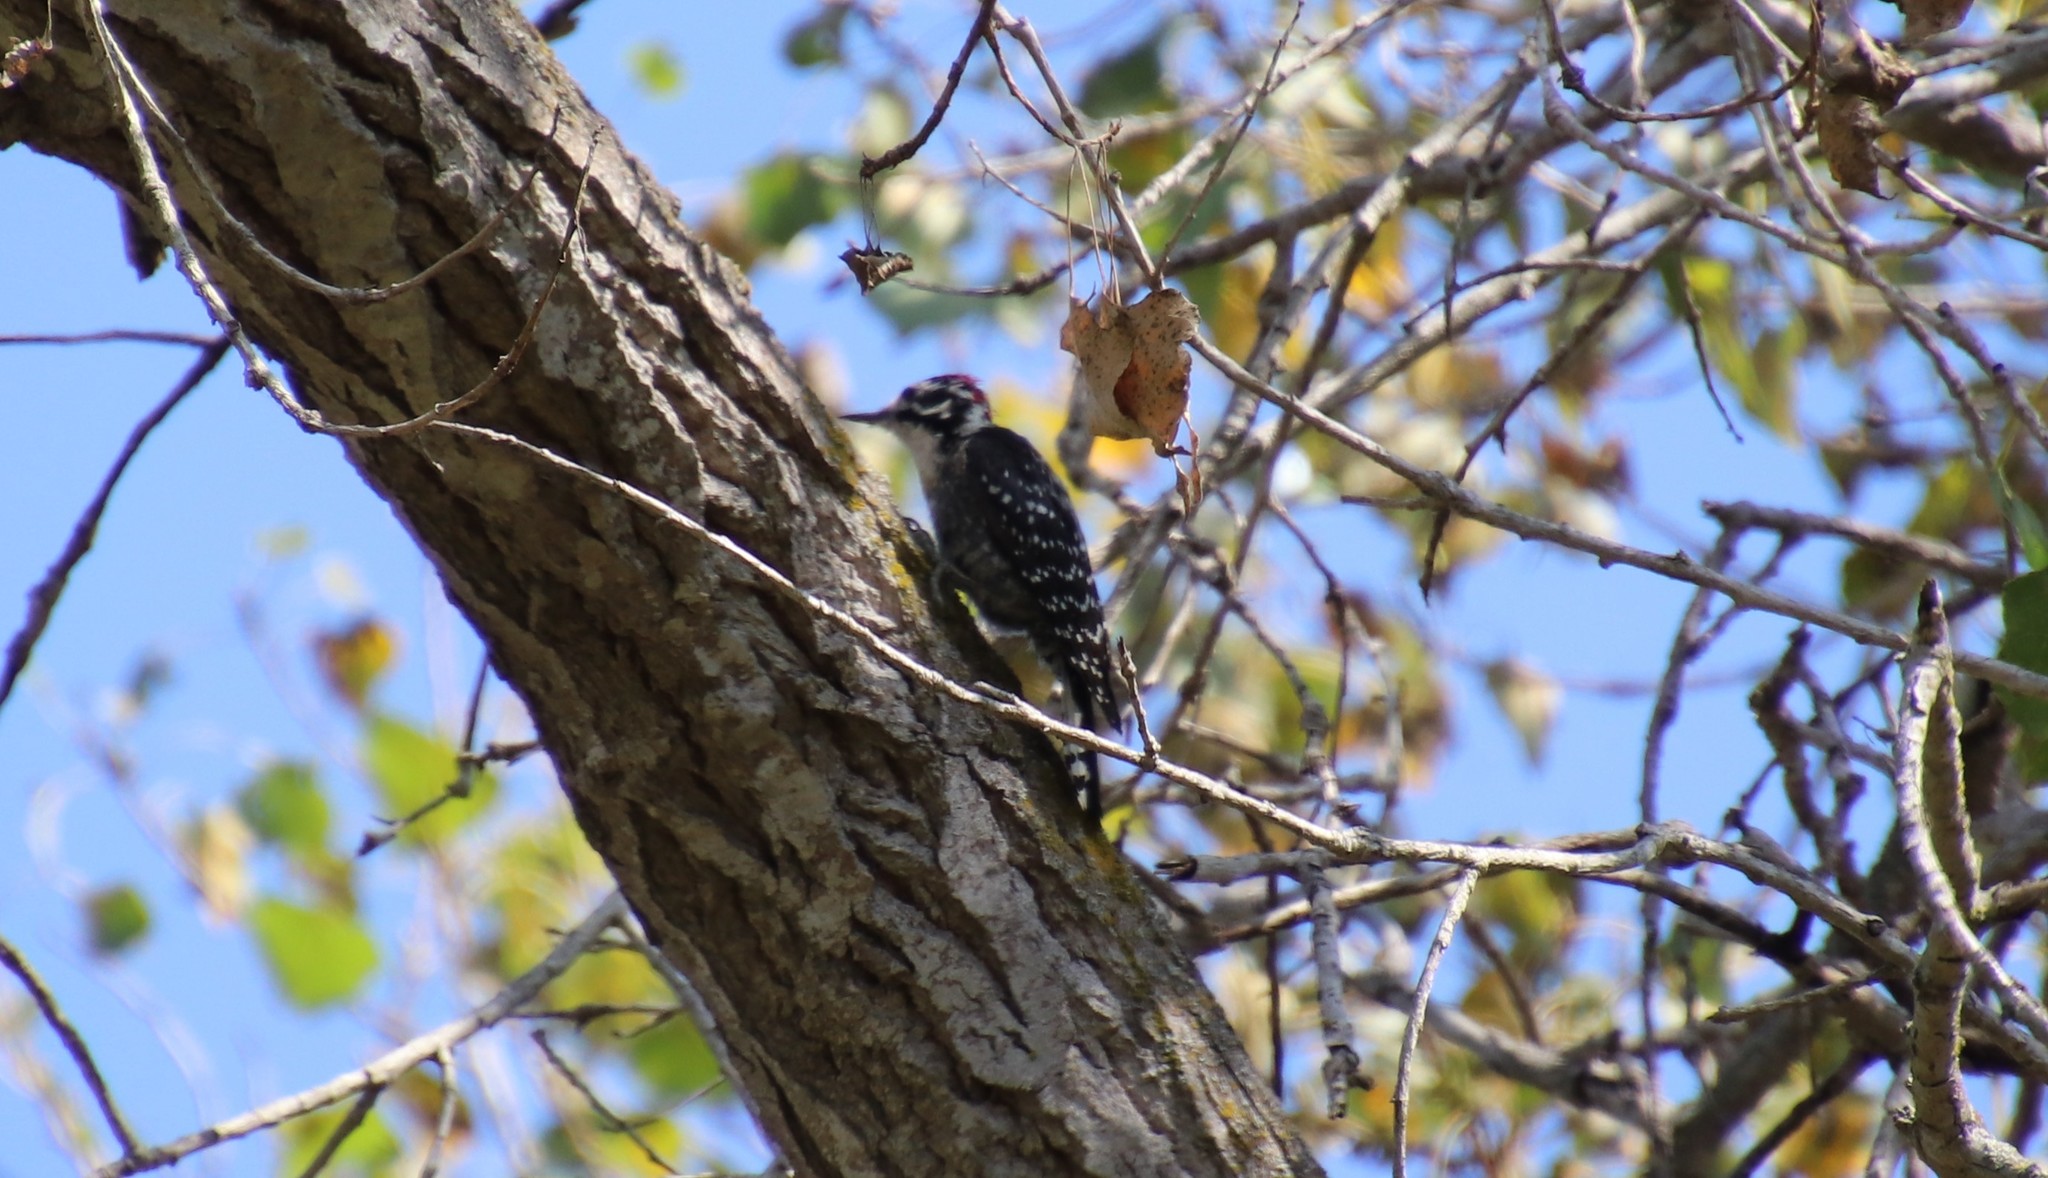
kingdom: Animalia
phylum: Chordata
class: Aves
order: Piciformes
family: Picidae
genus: Dryobates
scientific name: Dryobates nuttallii
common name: Nuttall's woodpecker
